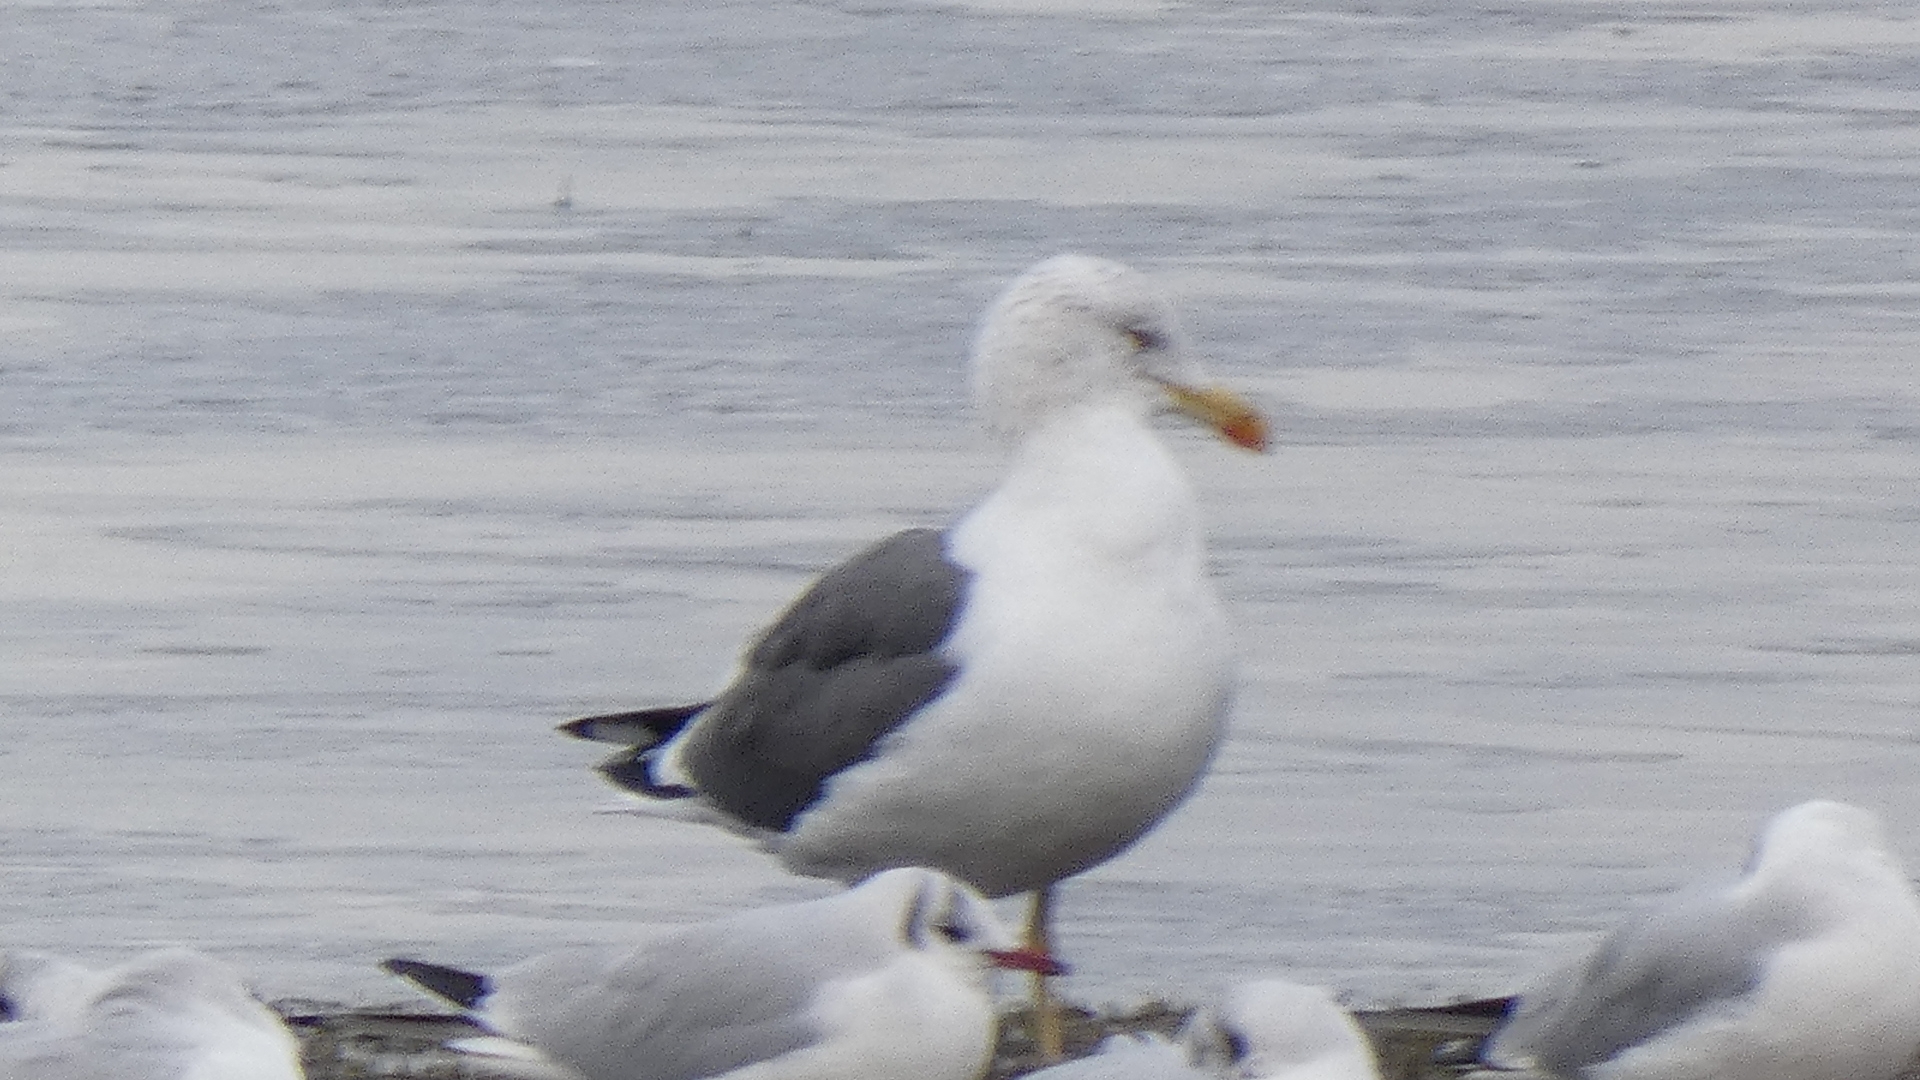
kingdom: Animalia
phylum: Chordata
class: Aves
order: Charadriiformes
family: Laridae
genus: Larus
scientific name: Larus fuscus
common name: Lesser black-backed gull
